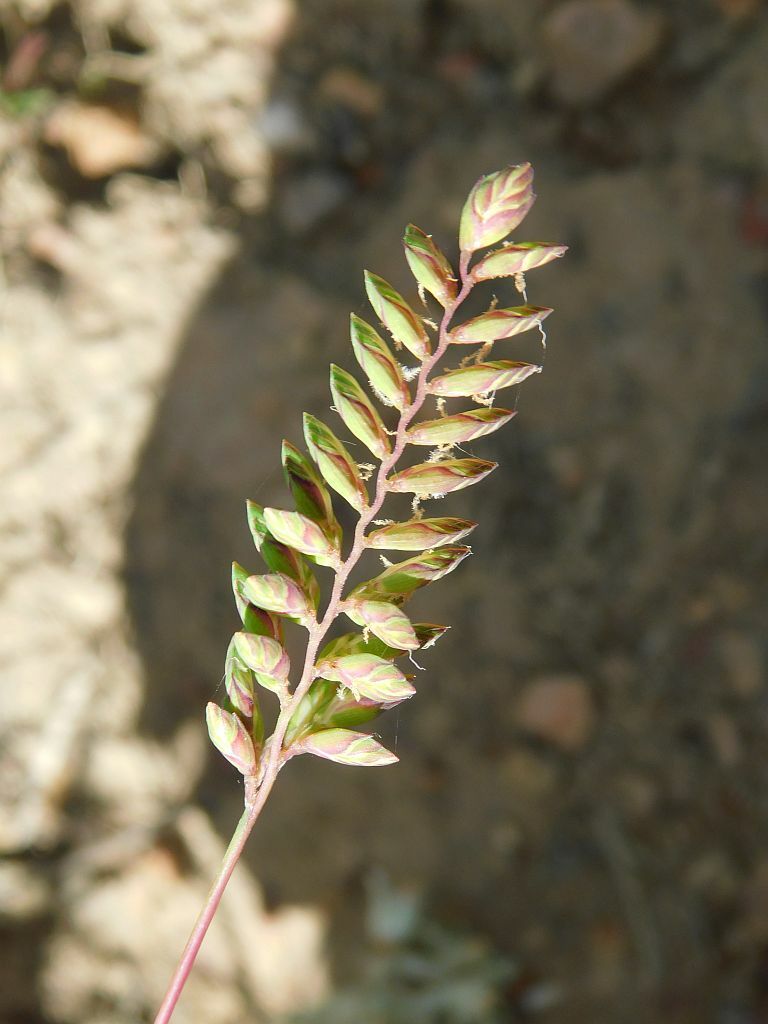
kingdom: Plantae
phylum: Tracheophyta
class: Liliopsida
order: Poales
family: Poaceae
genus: Tribolium
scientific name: Tribolium uniolae
